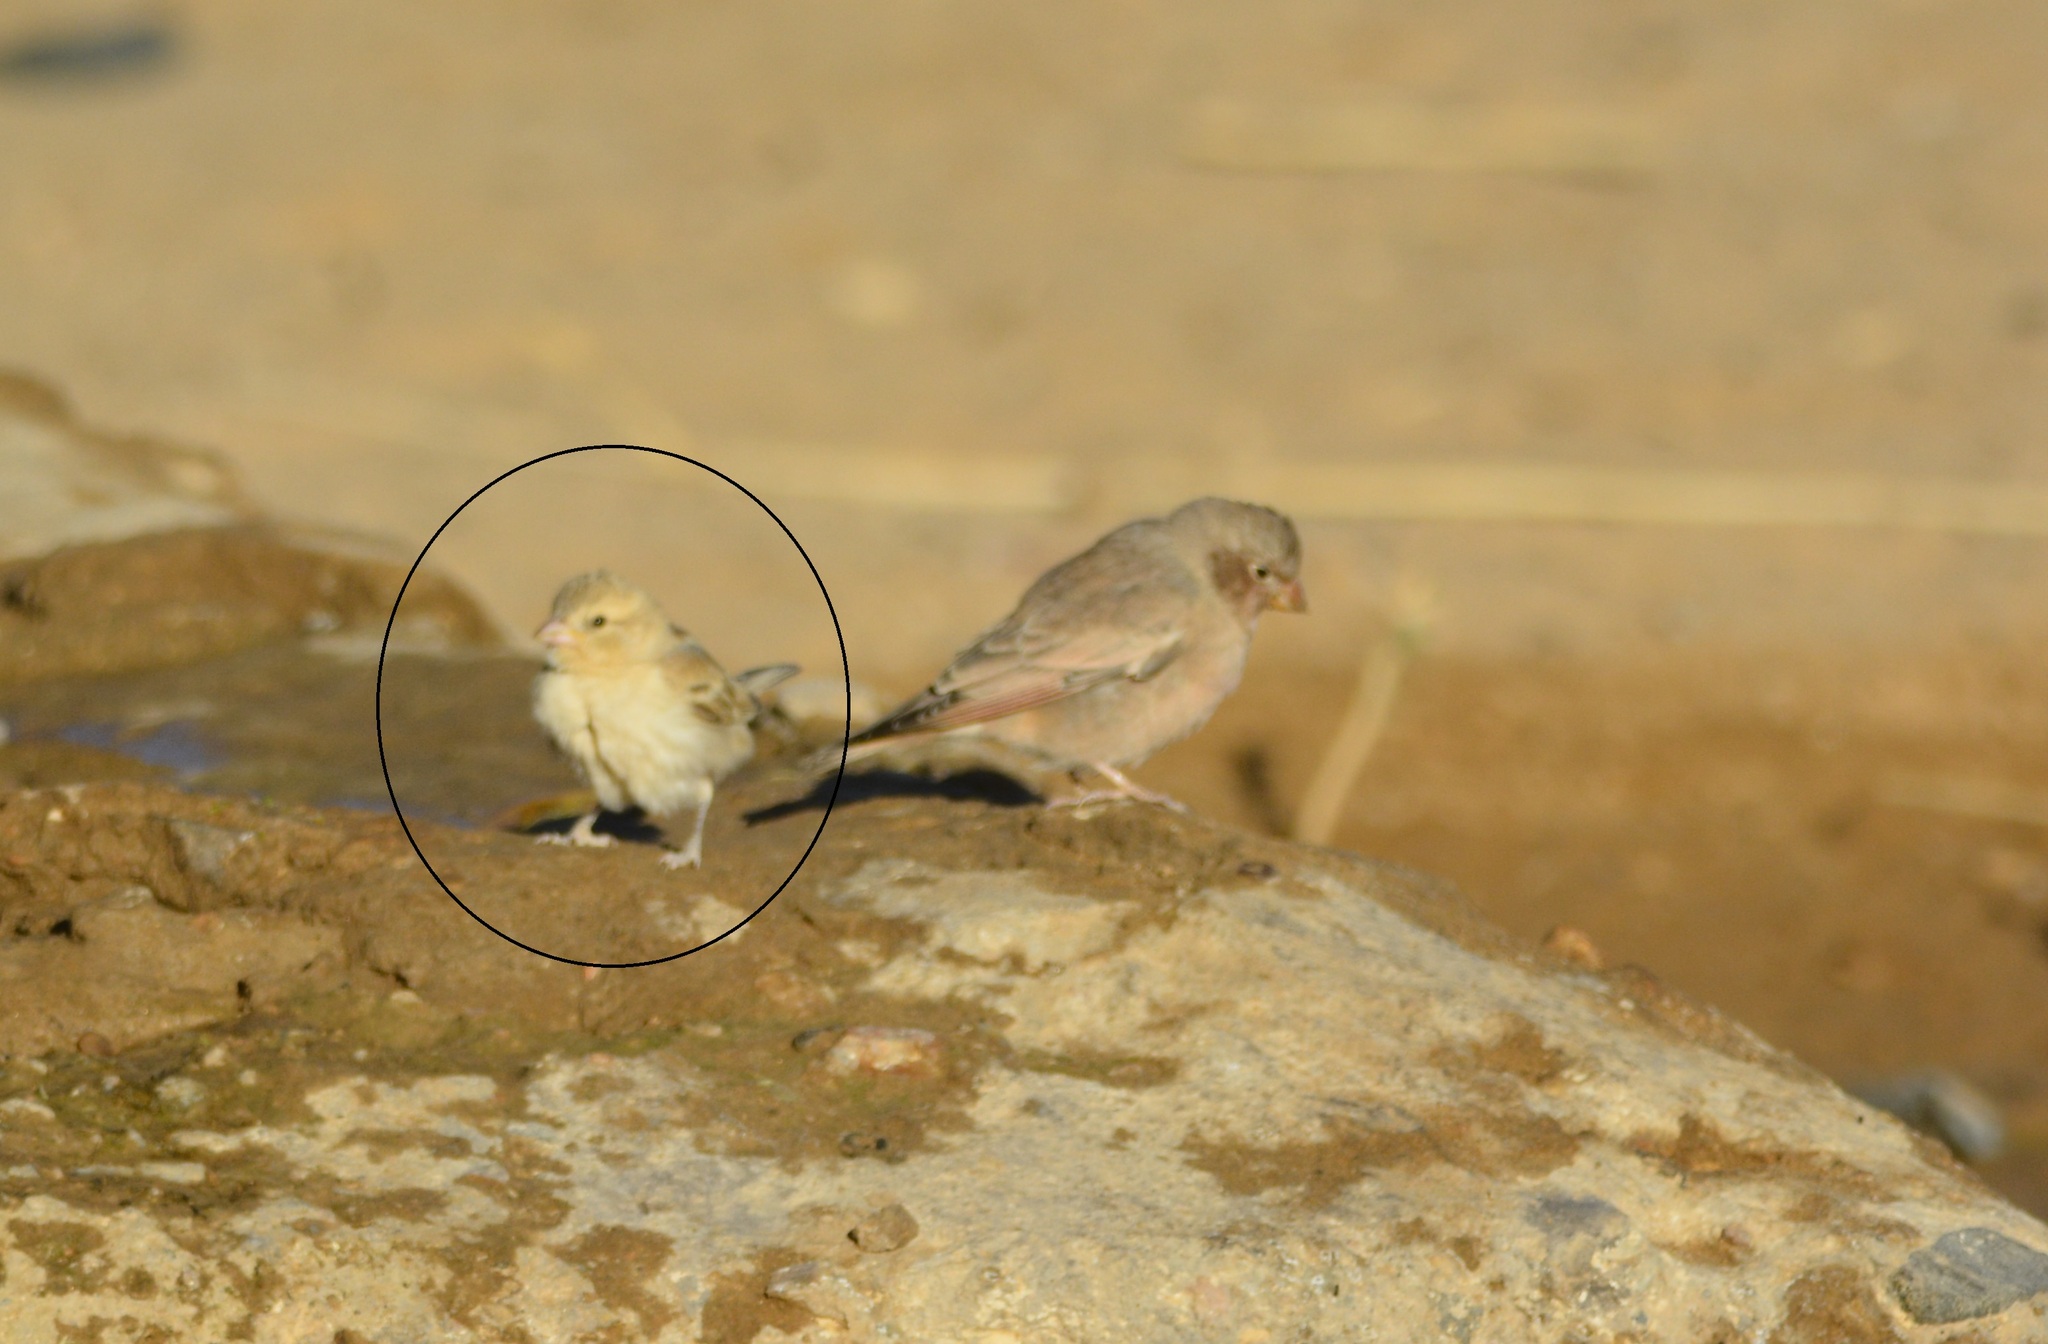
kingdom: Animalia
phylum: Chordata
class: Aves
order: Passeriformes
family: Passeridae
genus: Passer
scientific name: Passer luteus
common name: Sudan golden sparrow
